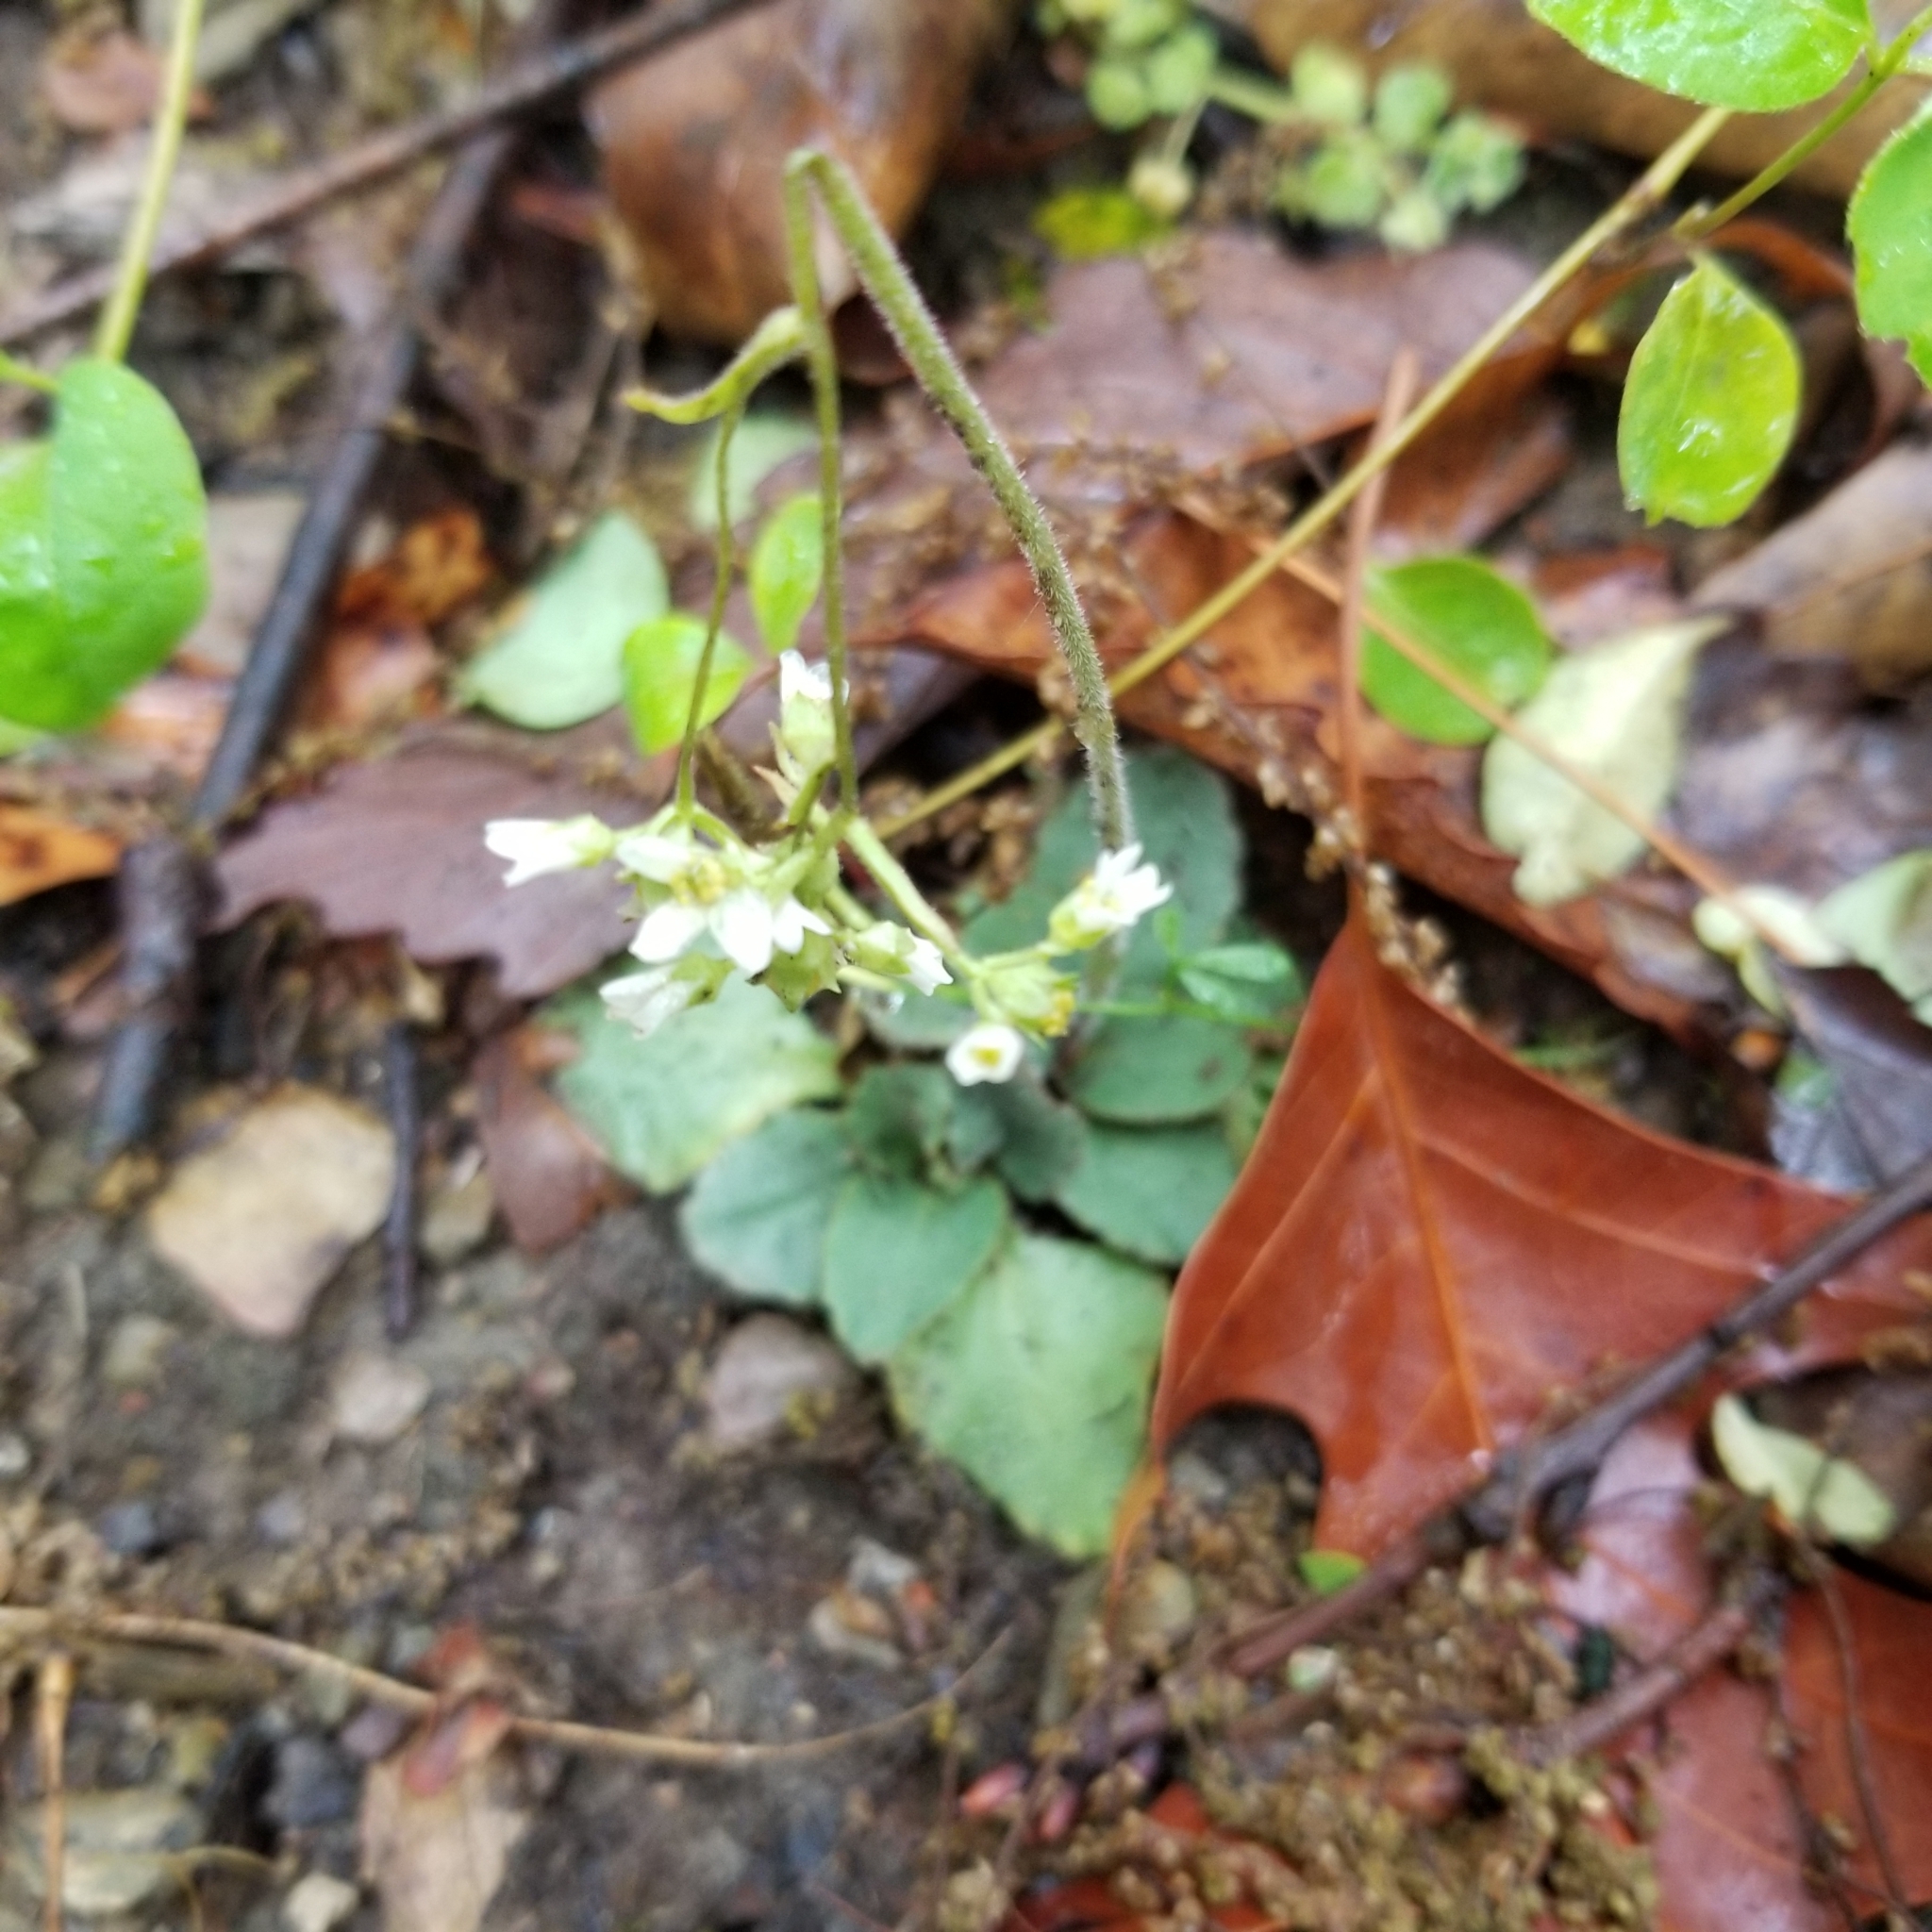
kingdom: Plantae
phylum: Tracheophyta
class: Magnoliopsida
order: Saxifragales
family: Saxifragaceae
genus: Micranthes
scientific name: Micranthes virginiensis
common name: Early saxifrage
